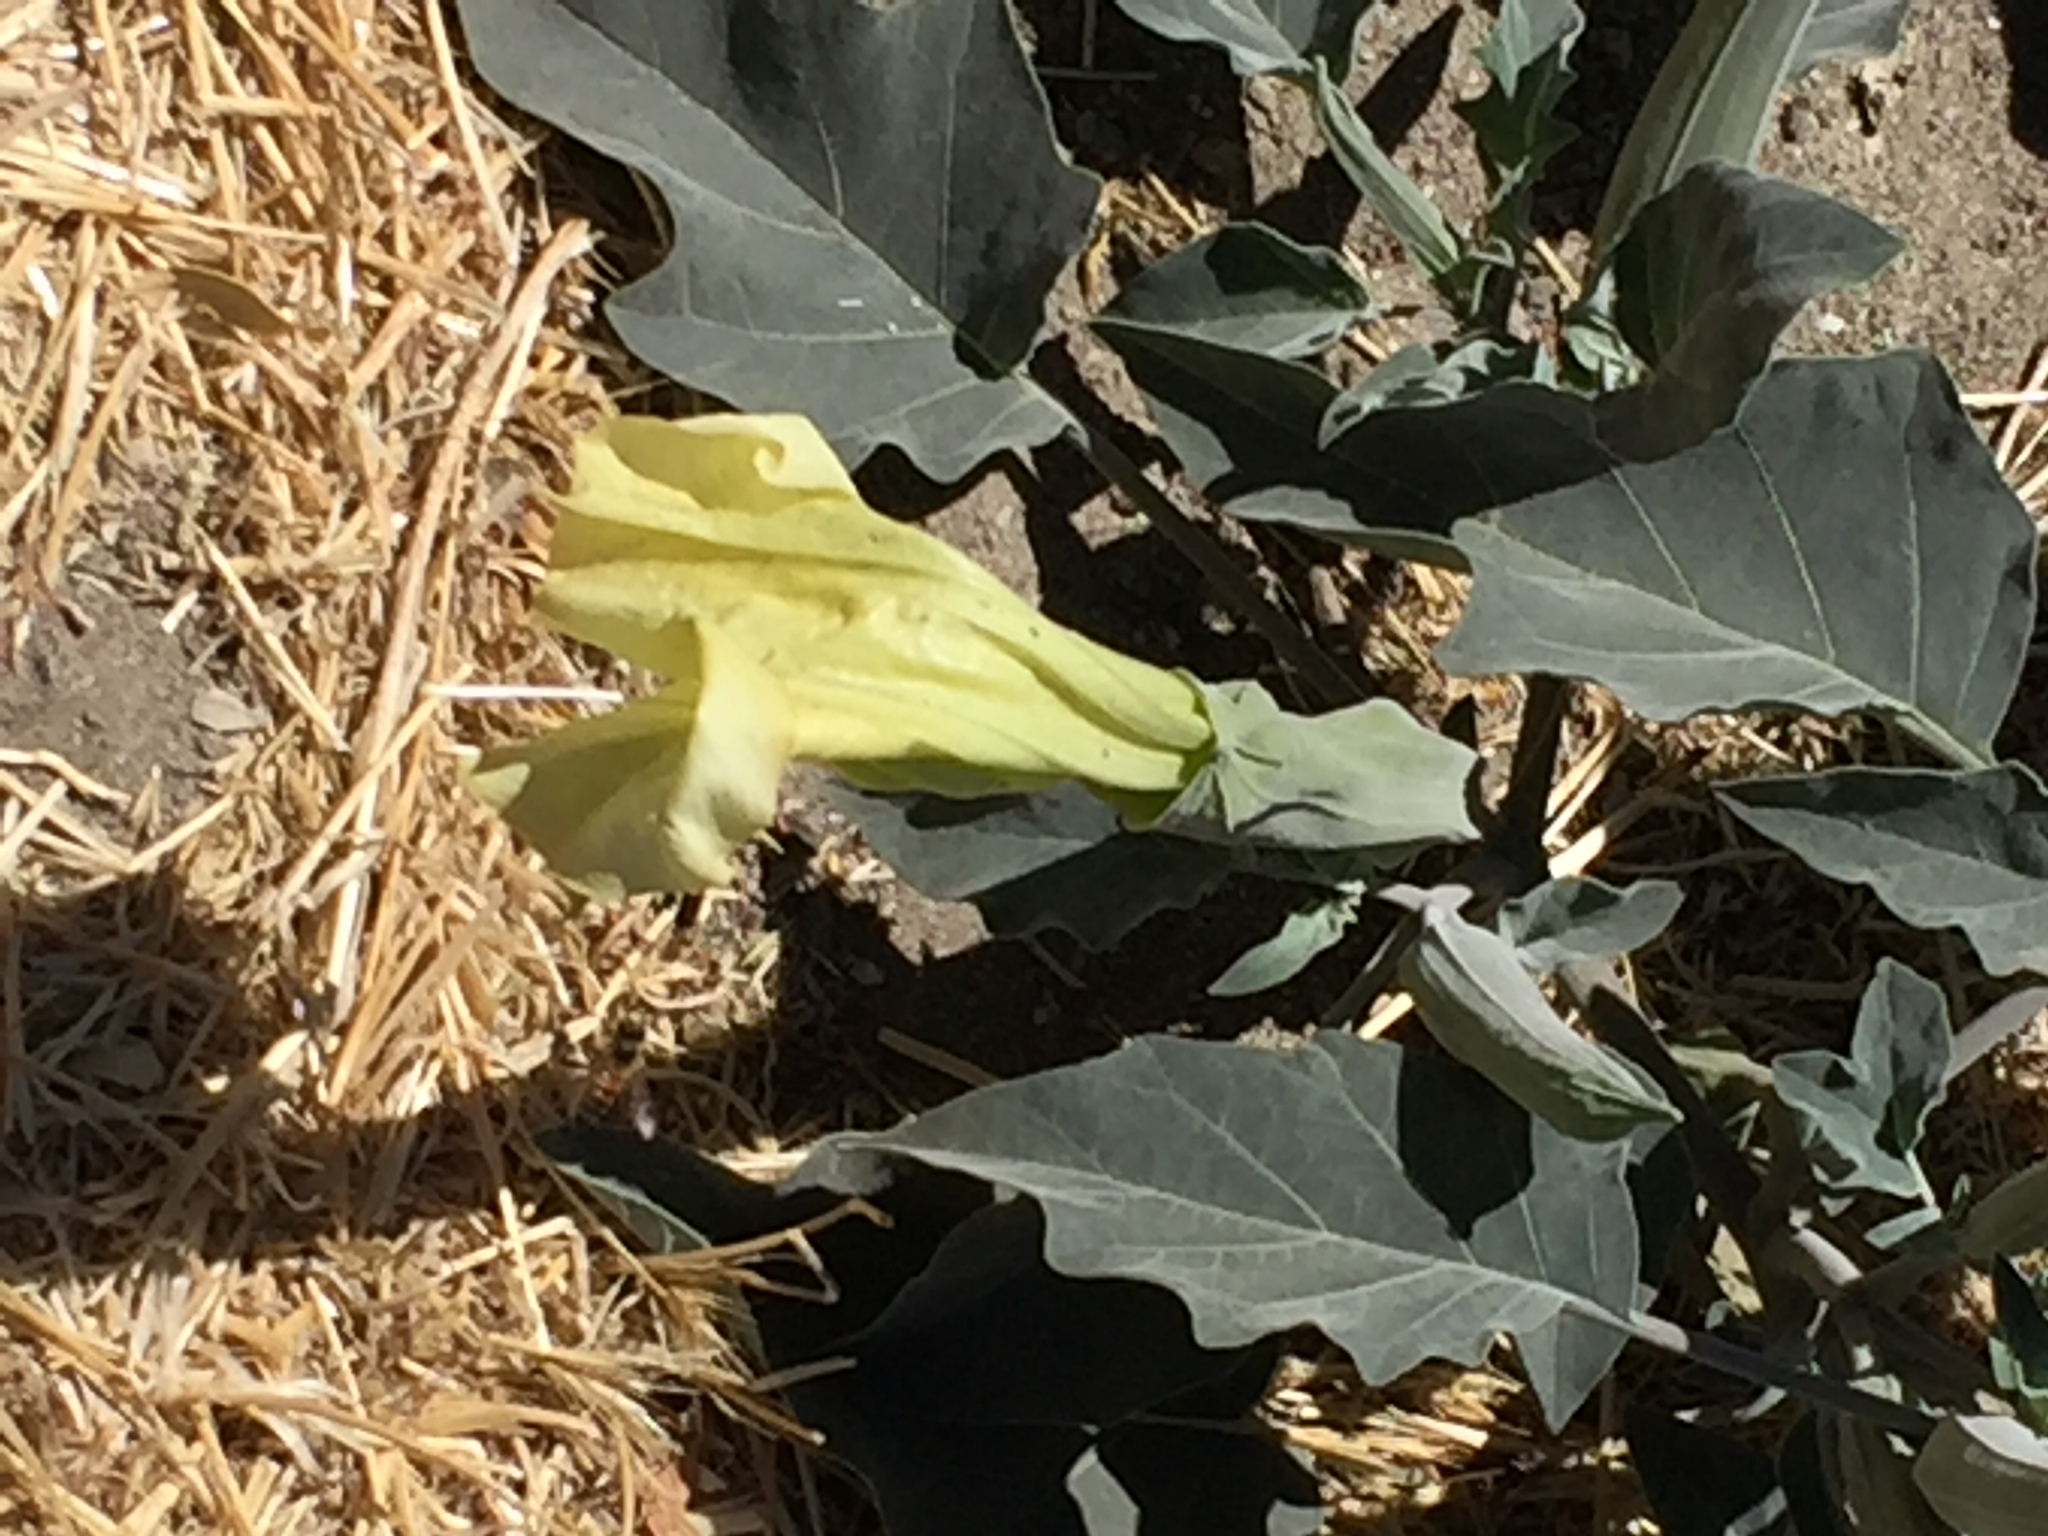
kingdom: Plantae
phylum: Tracheophyta
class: Magnoliopsida
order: Solanales
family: Solanaceae
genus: Datura
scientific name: Datura wrightii
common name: Sacred thorn-apple
